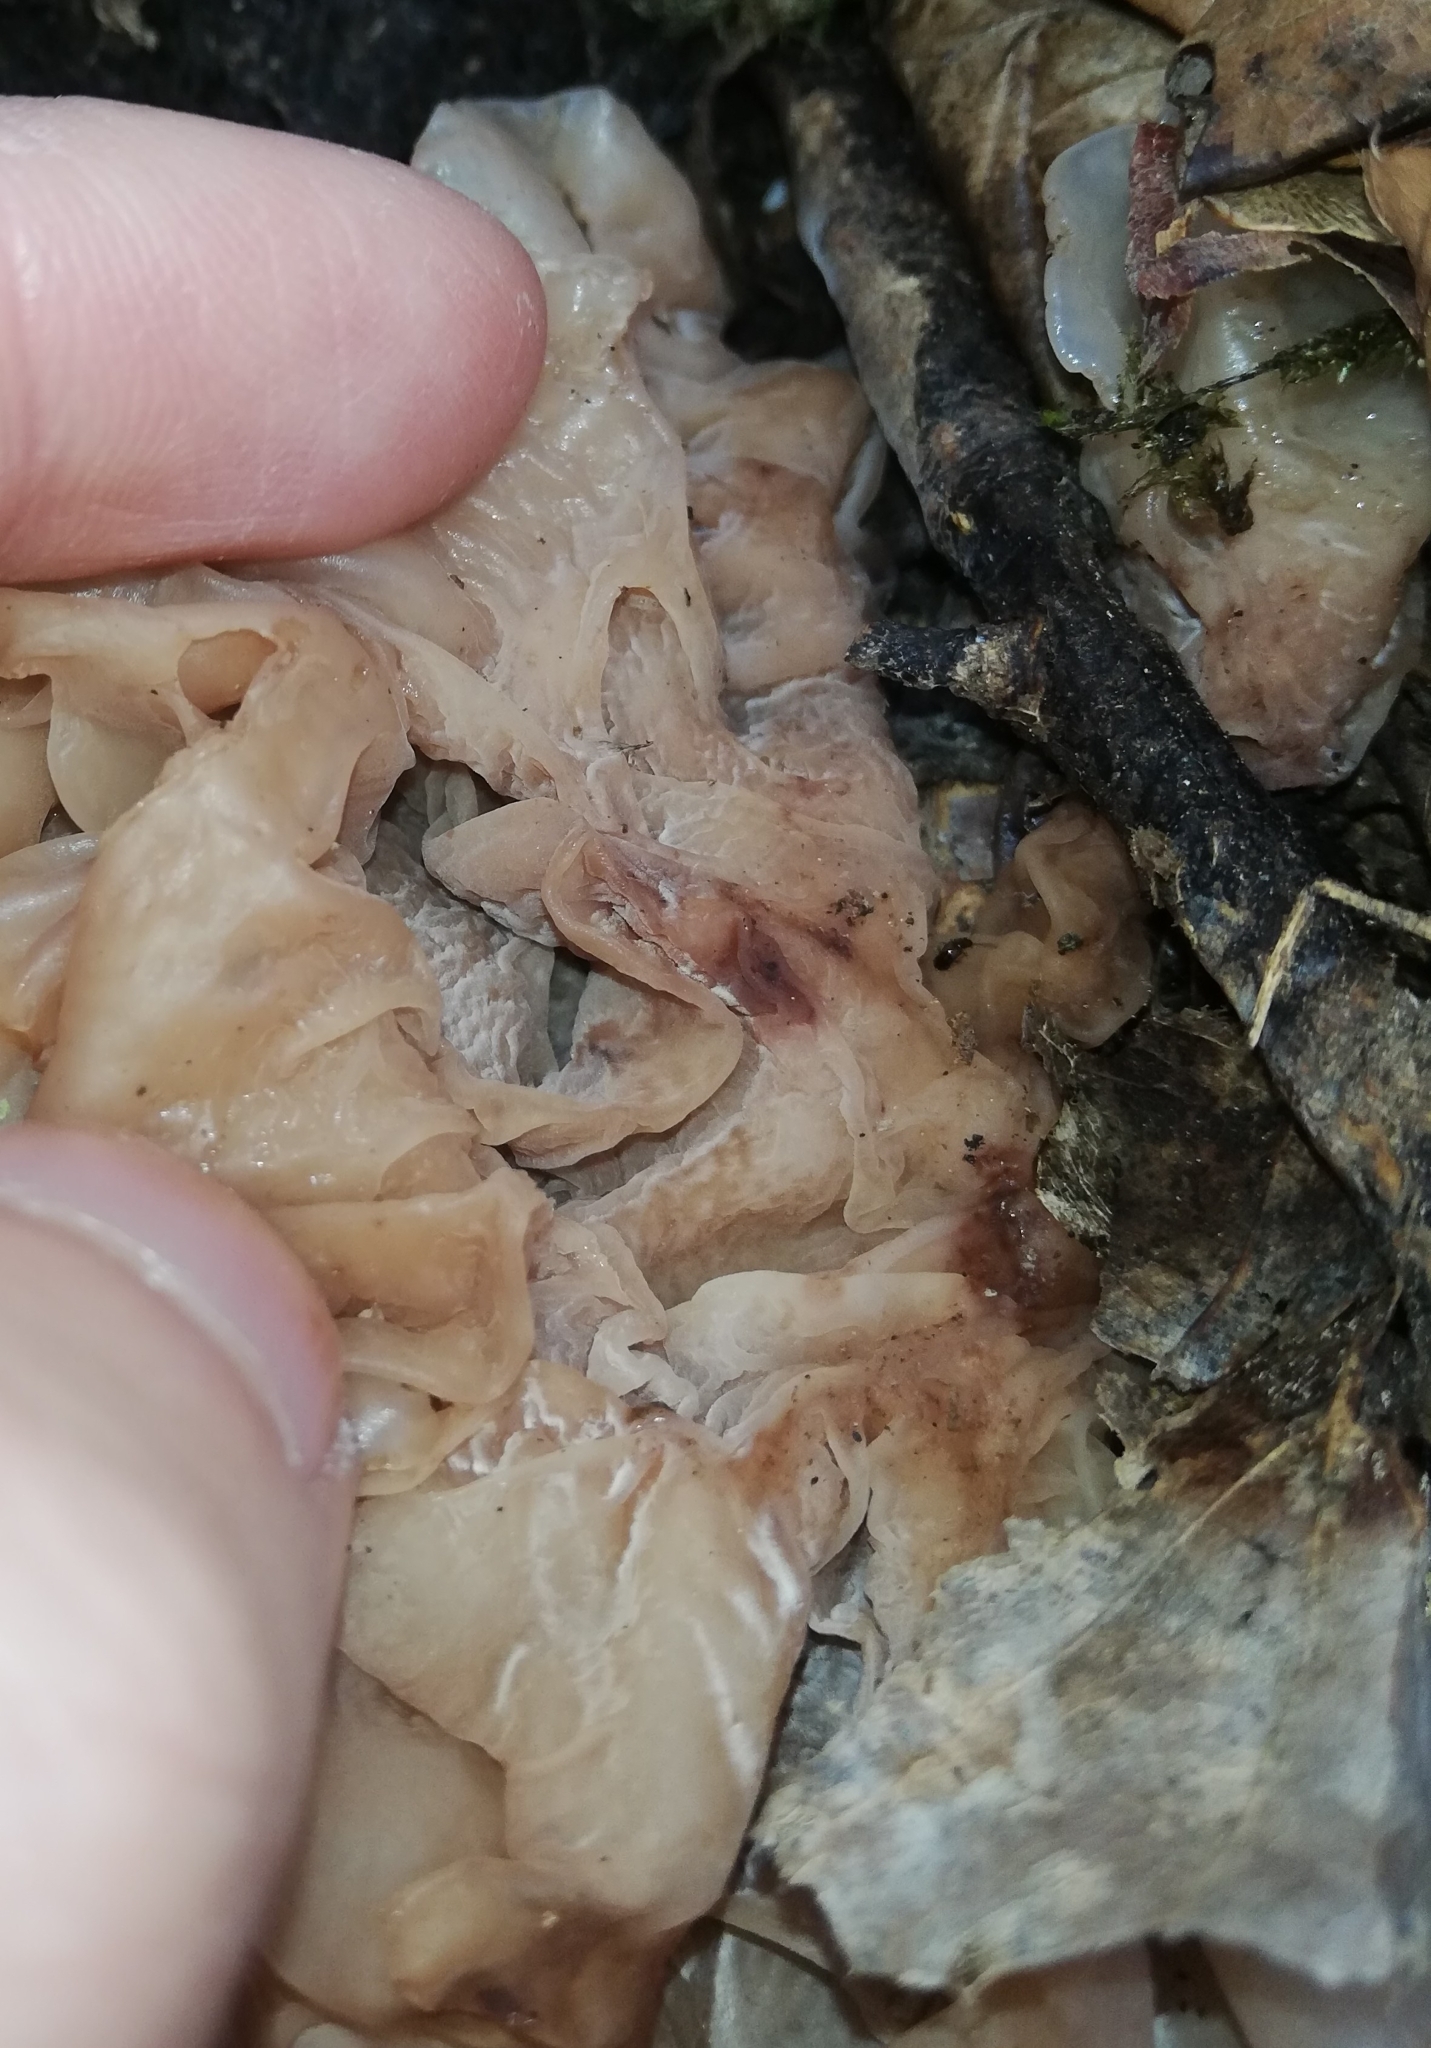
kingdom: Fungi
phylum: Basidiomycota
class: Tremellomycetes
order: Tremellales
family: Tremellaceae
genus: Phaeotremella
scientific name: Phaeotremella frondosa
